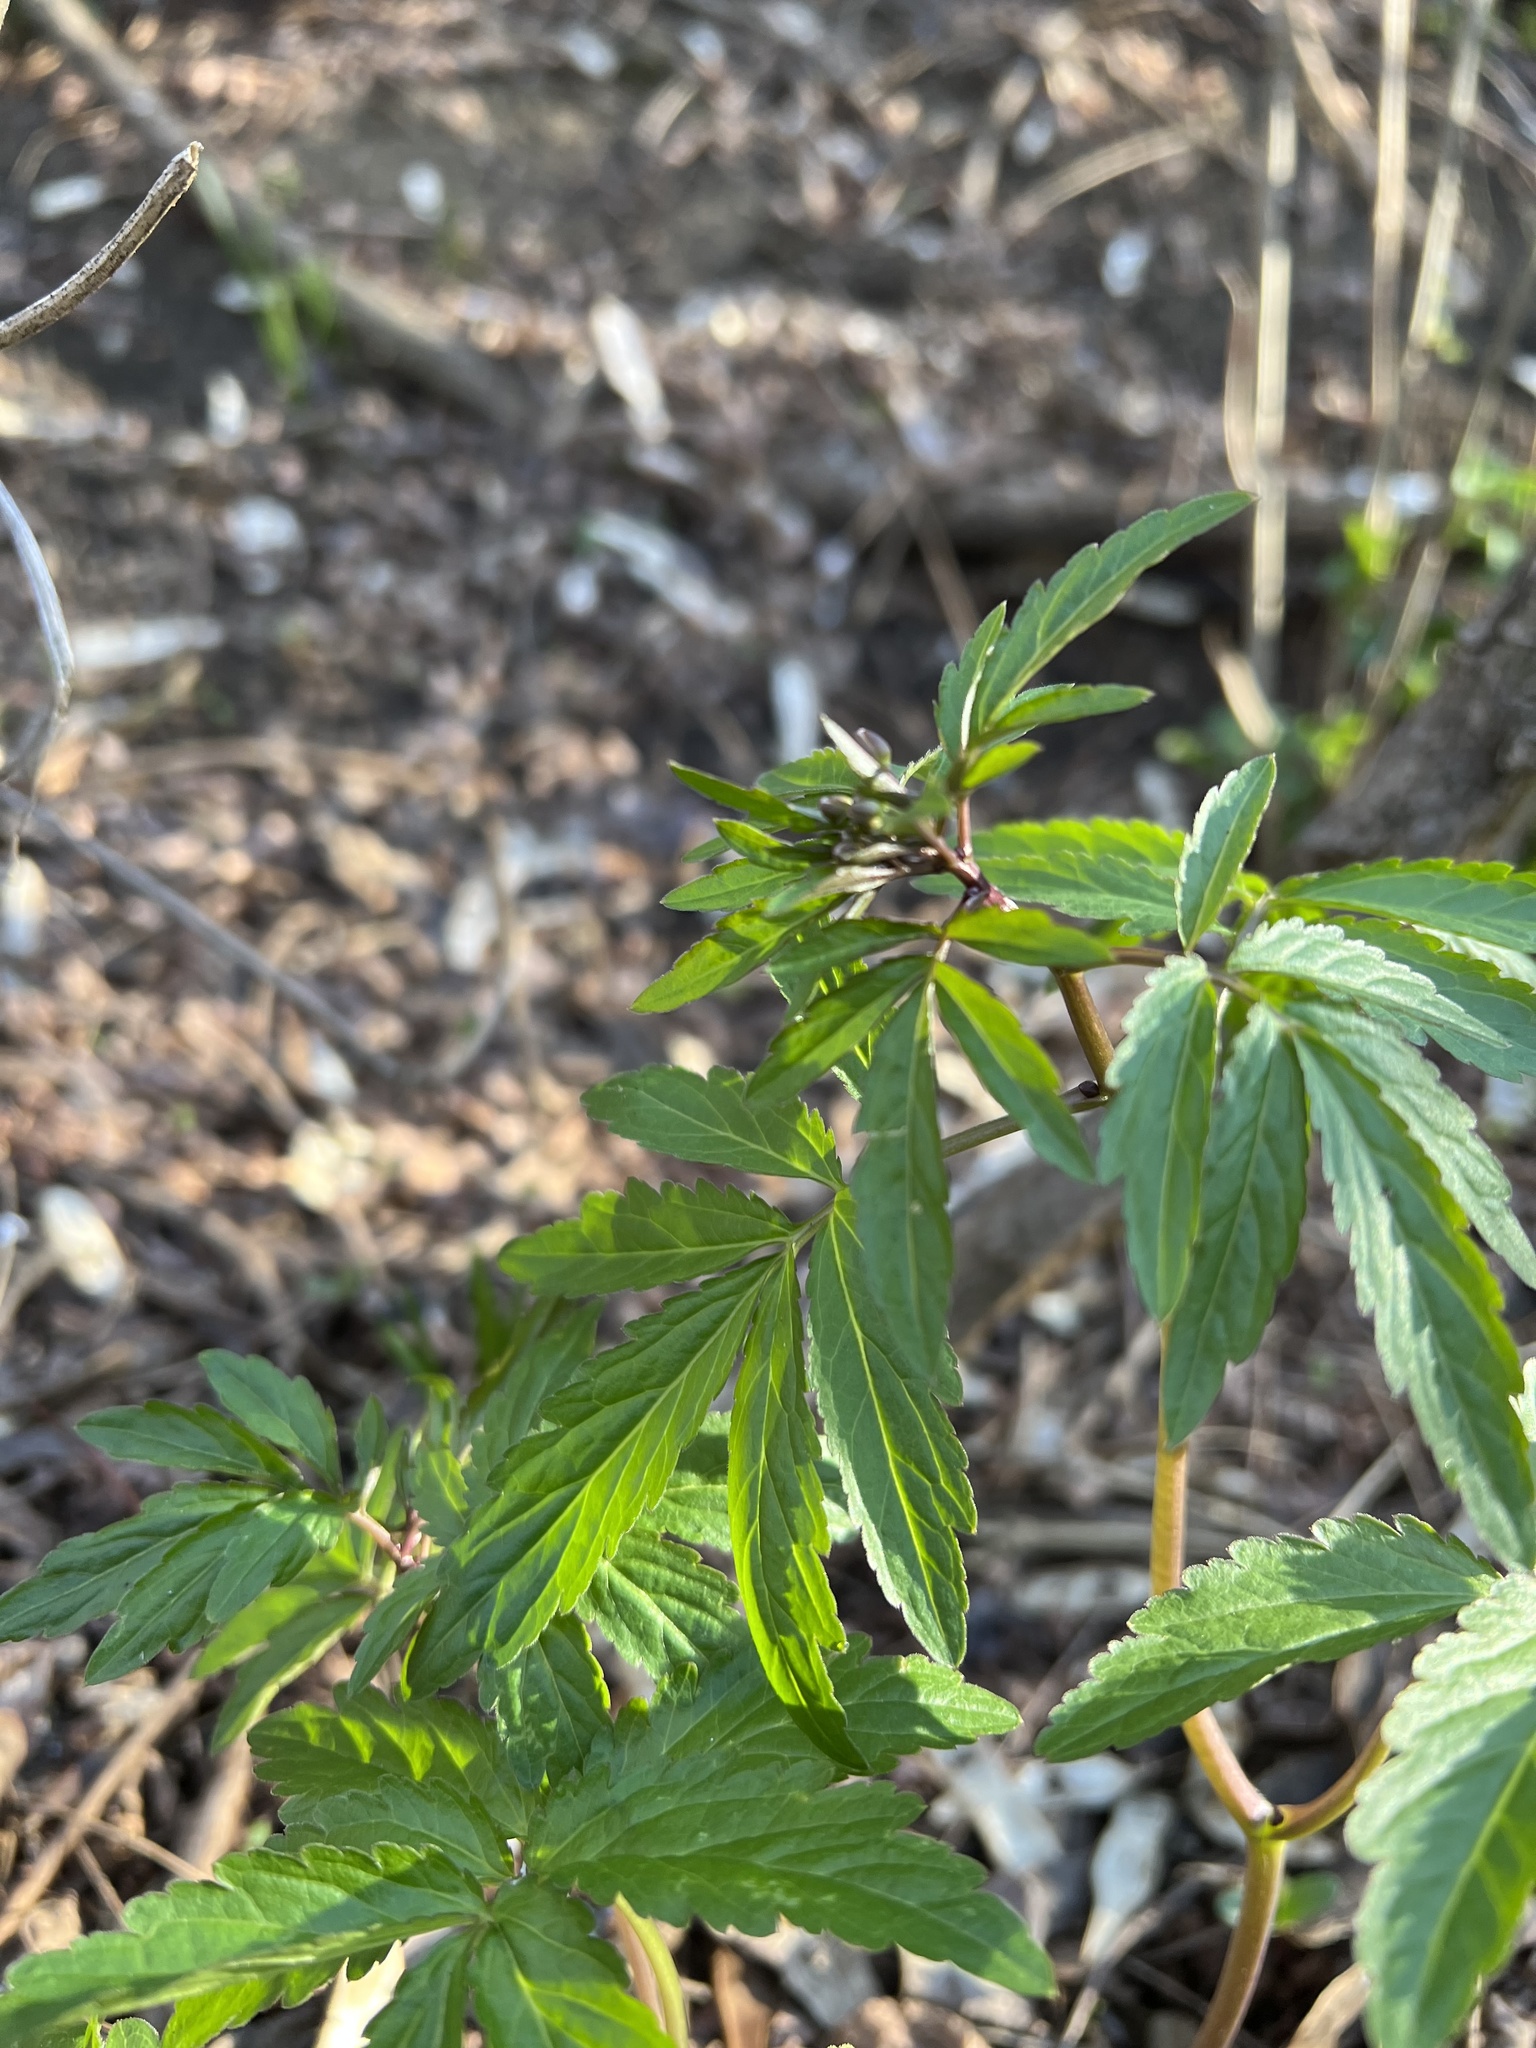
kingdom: Plantae
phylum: Tracheophyta
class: Magnoliopsida
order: Brassicales
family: Brassicaceae
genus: Cardamine
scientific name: Cardamine bulbifera
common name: Coralroot bittercress
